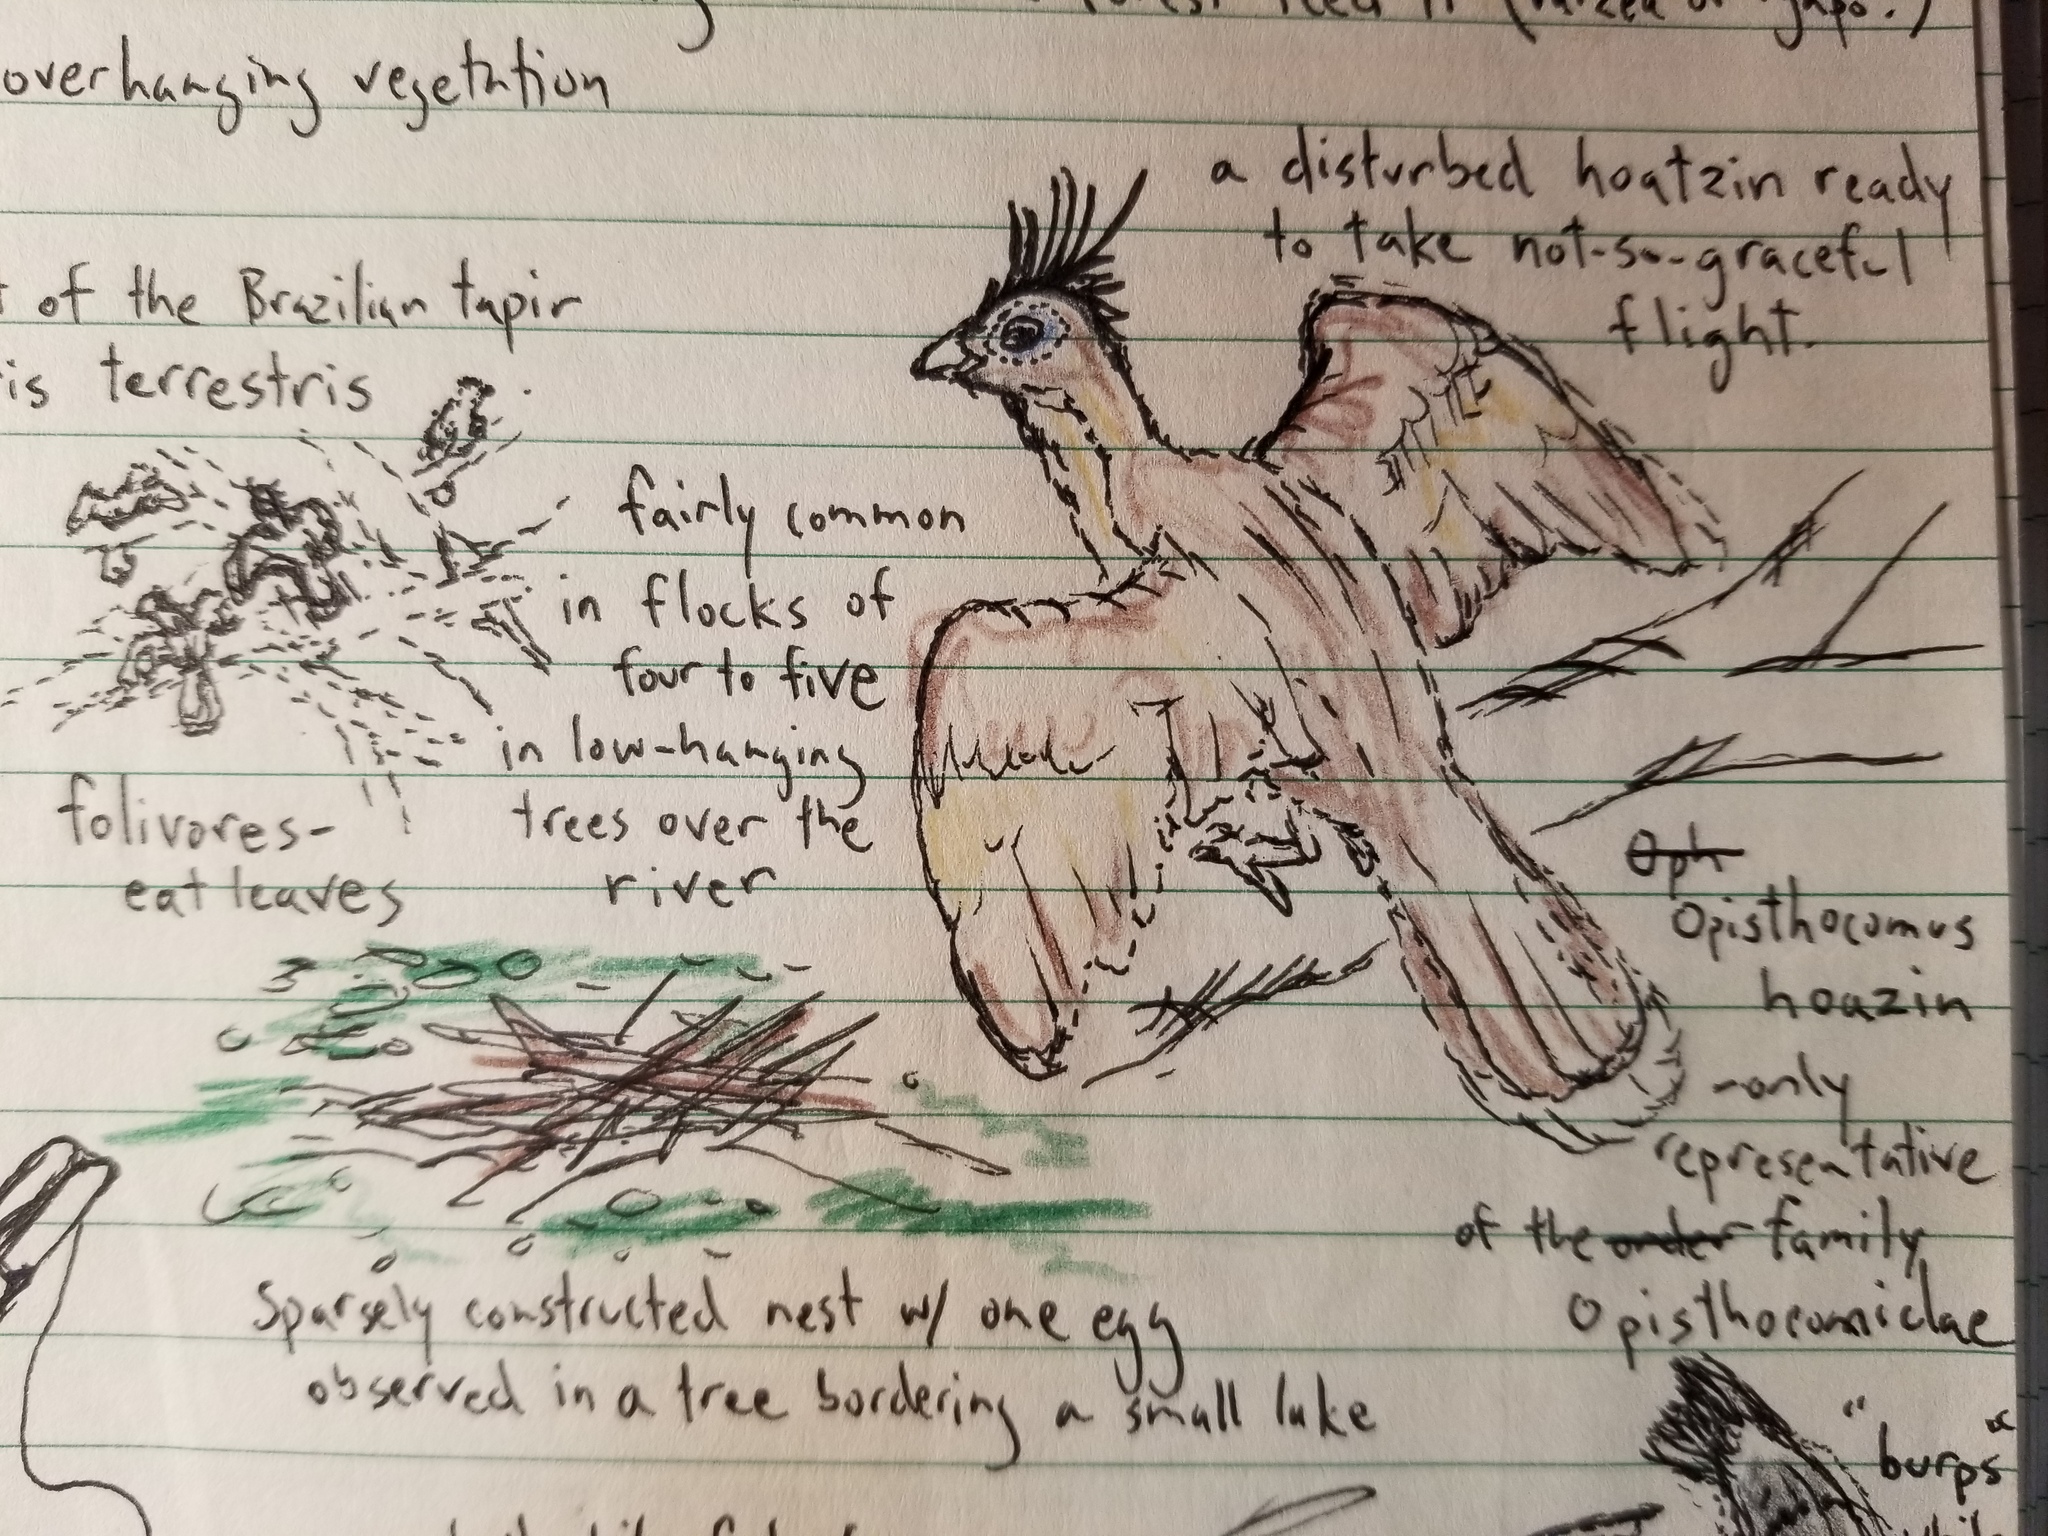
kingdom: Animalia
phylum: Chordata
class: Aves
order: Opisthocomiformes
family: Opisthocomidae
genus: Opisthocomus
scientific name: Opisthocomus hoazin
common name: Hoatzin
